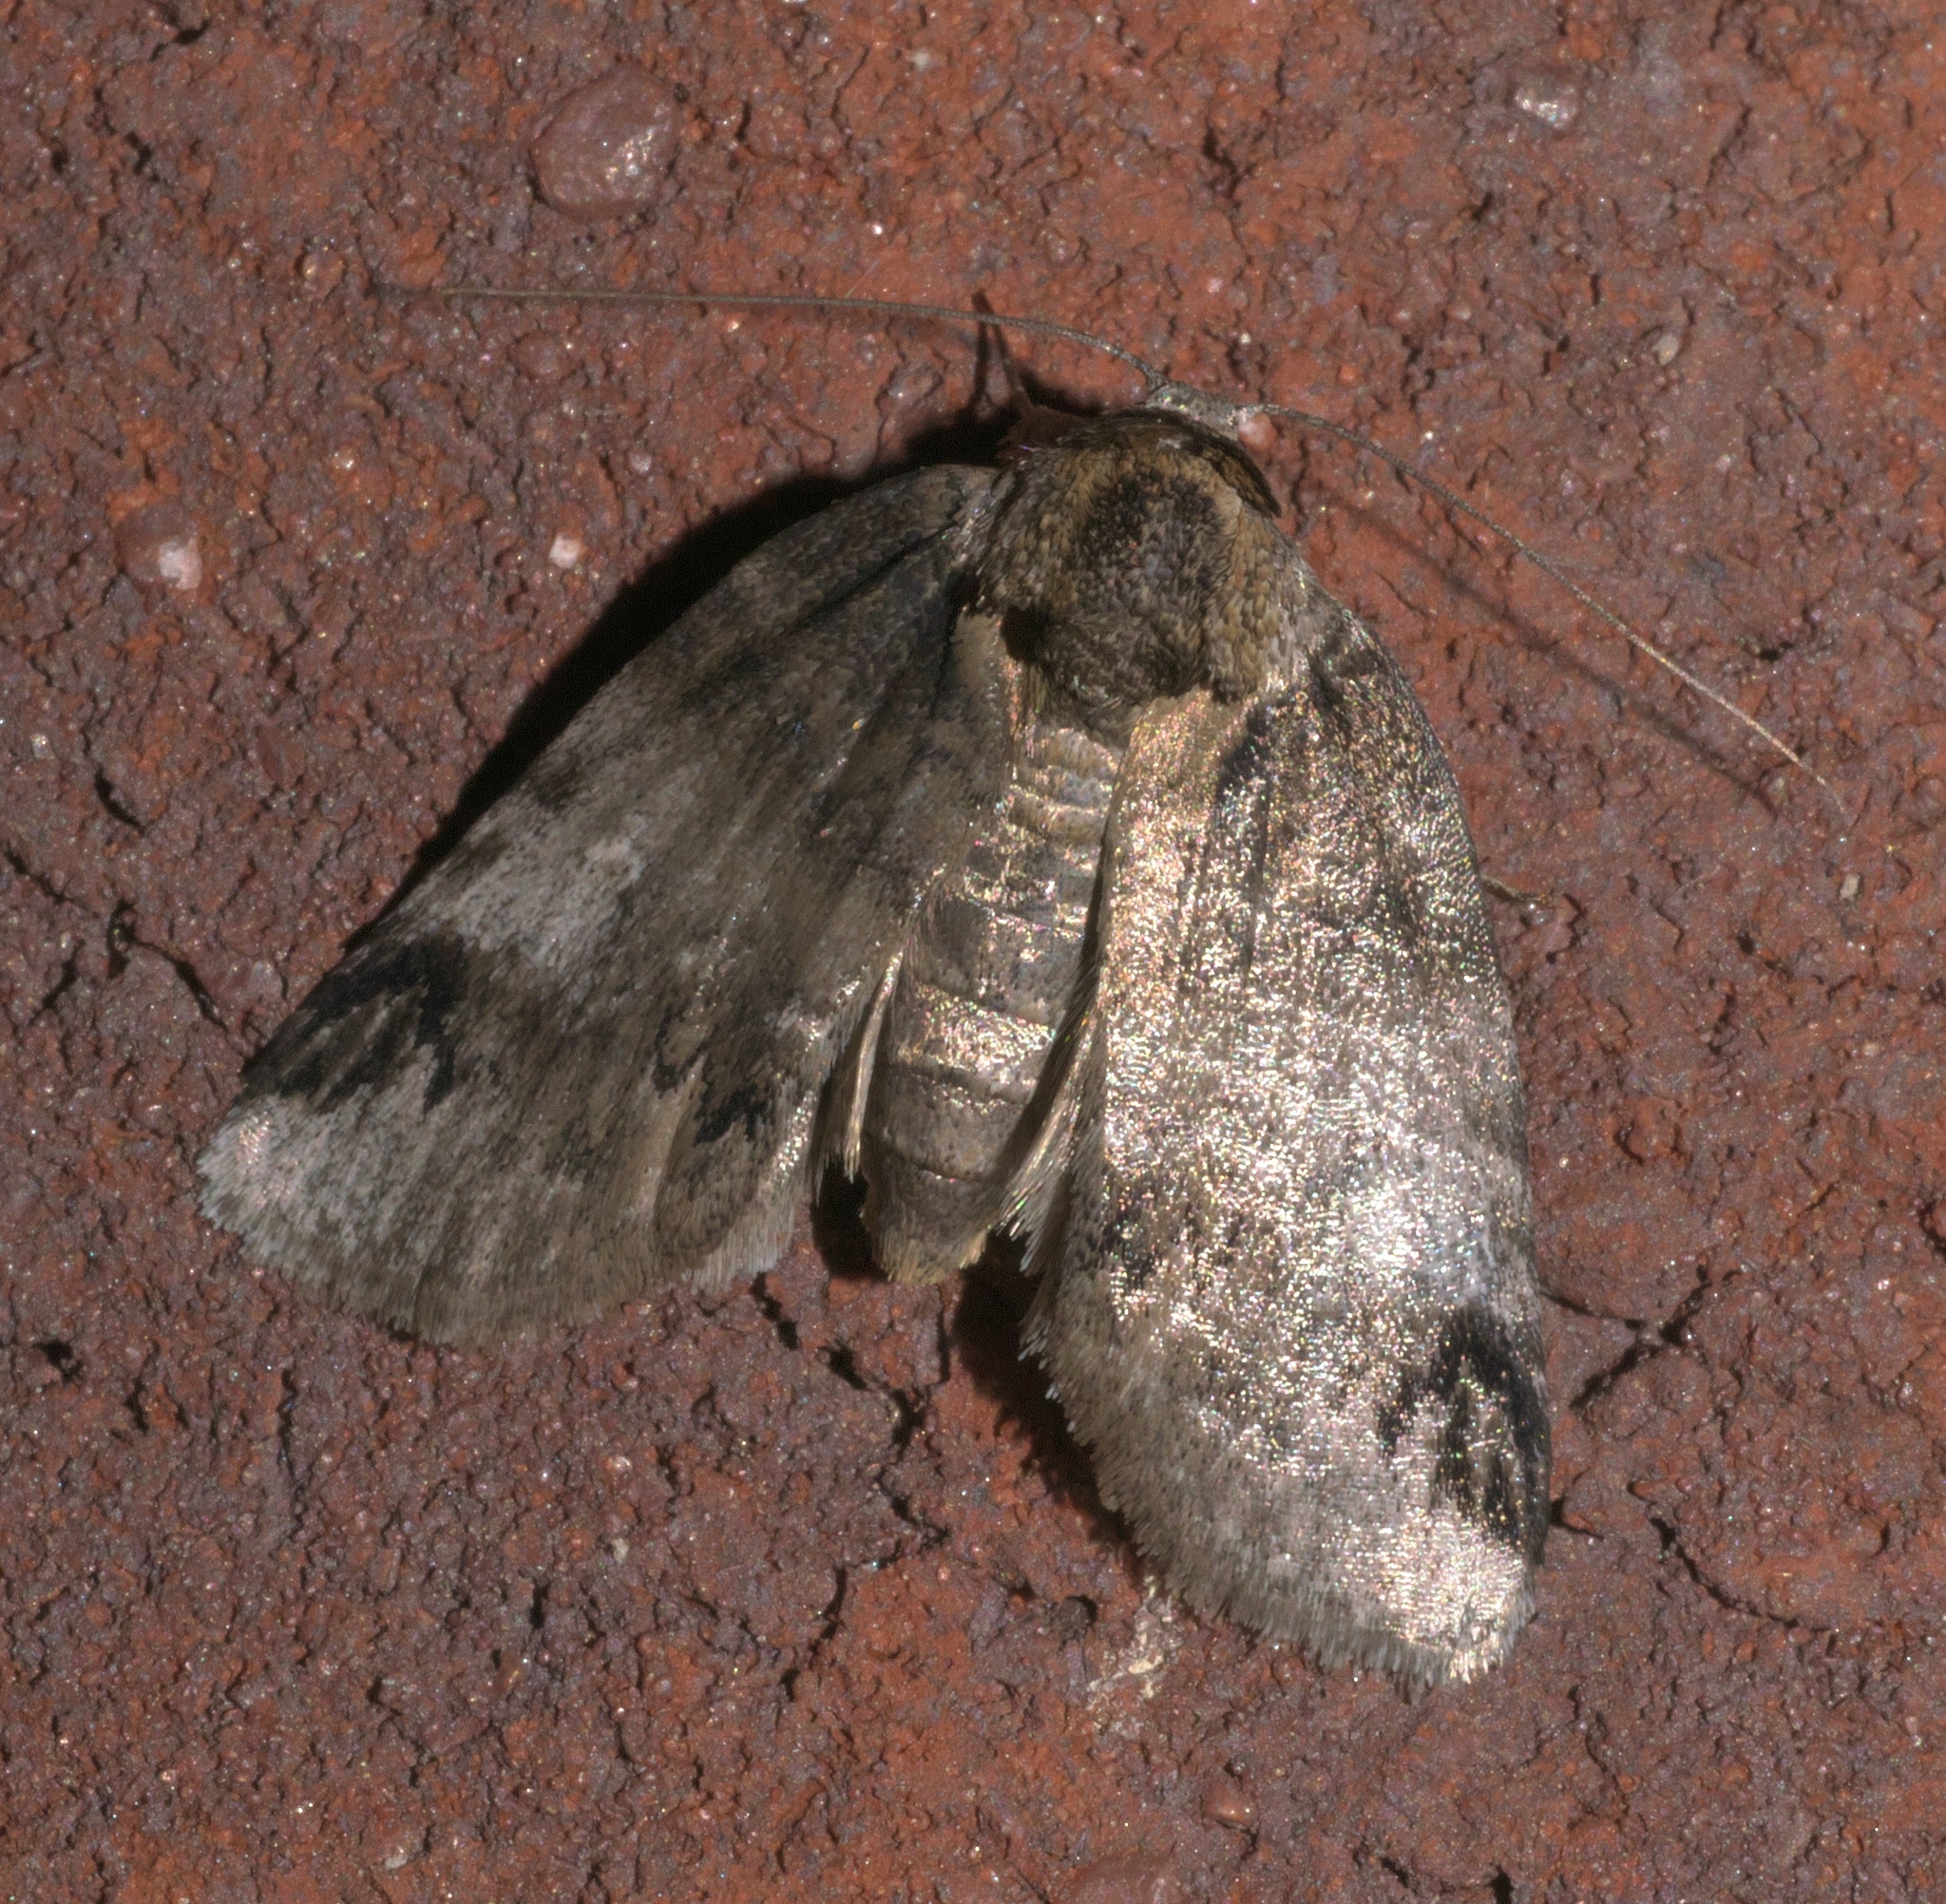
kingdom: Animalia
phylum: Arthropoda
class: Insecta
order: Lepidoptera
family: Nolidae
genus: Baileya
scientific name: Baileya dormitans
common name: Sleeping baileya moth
